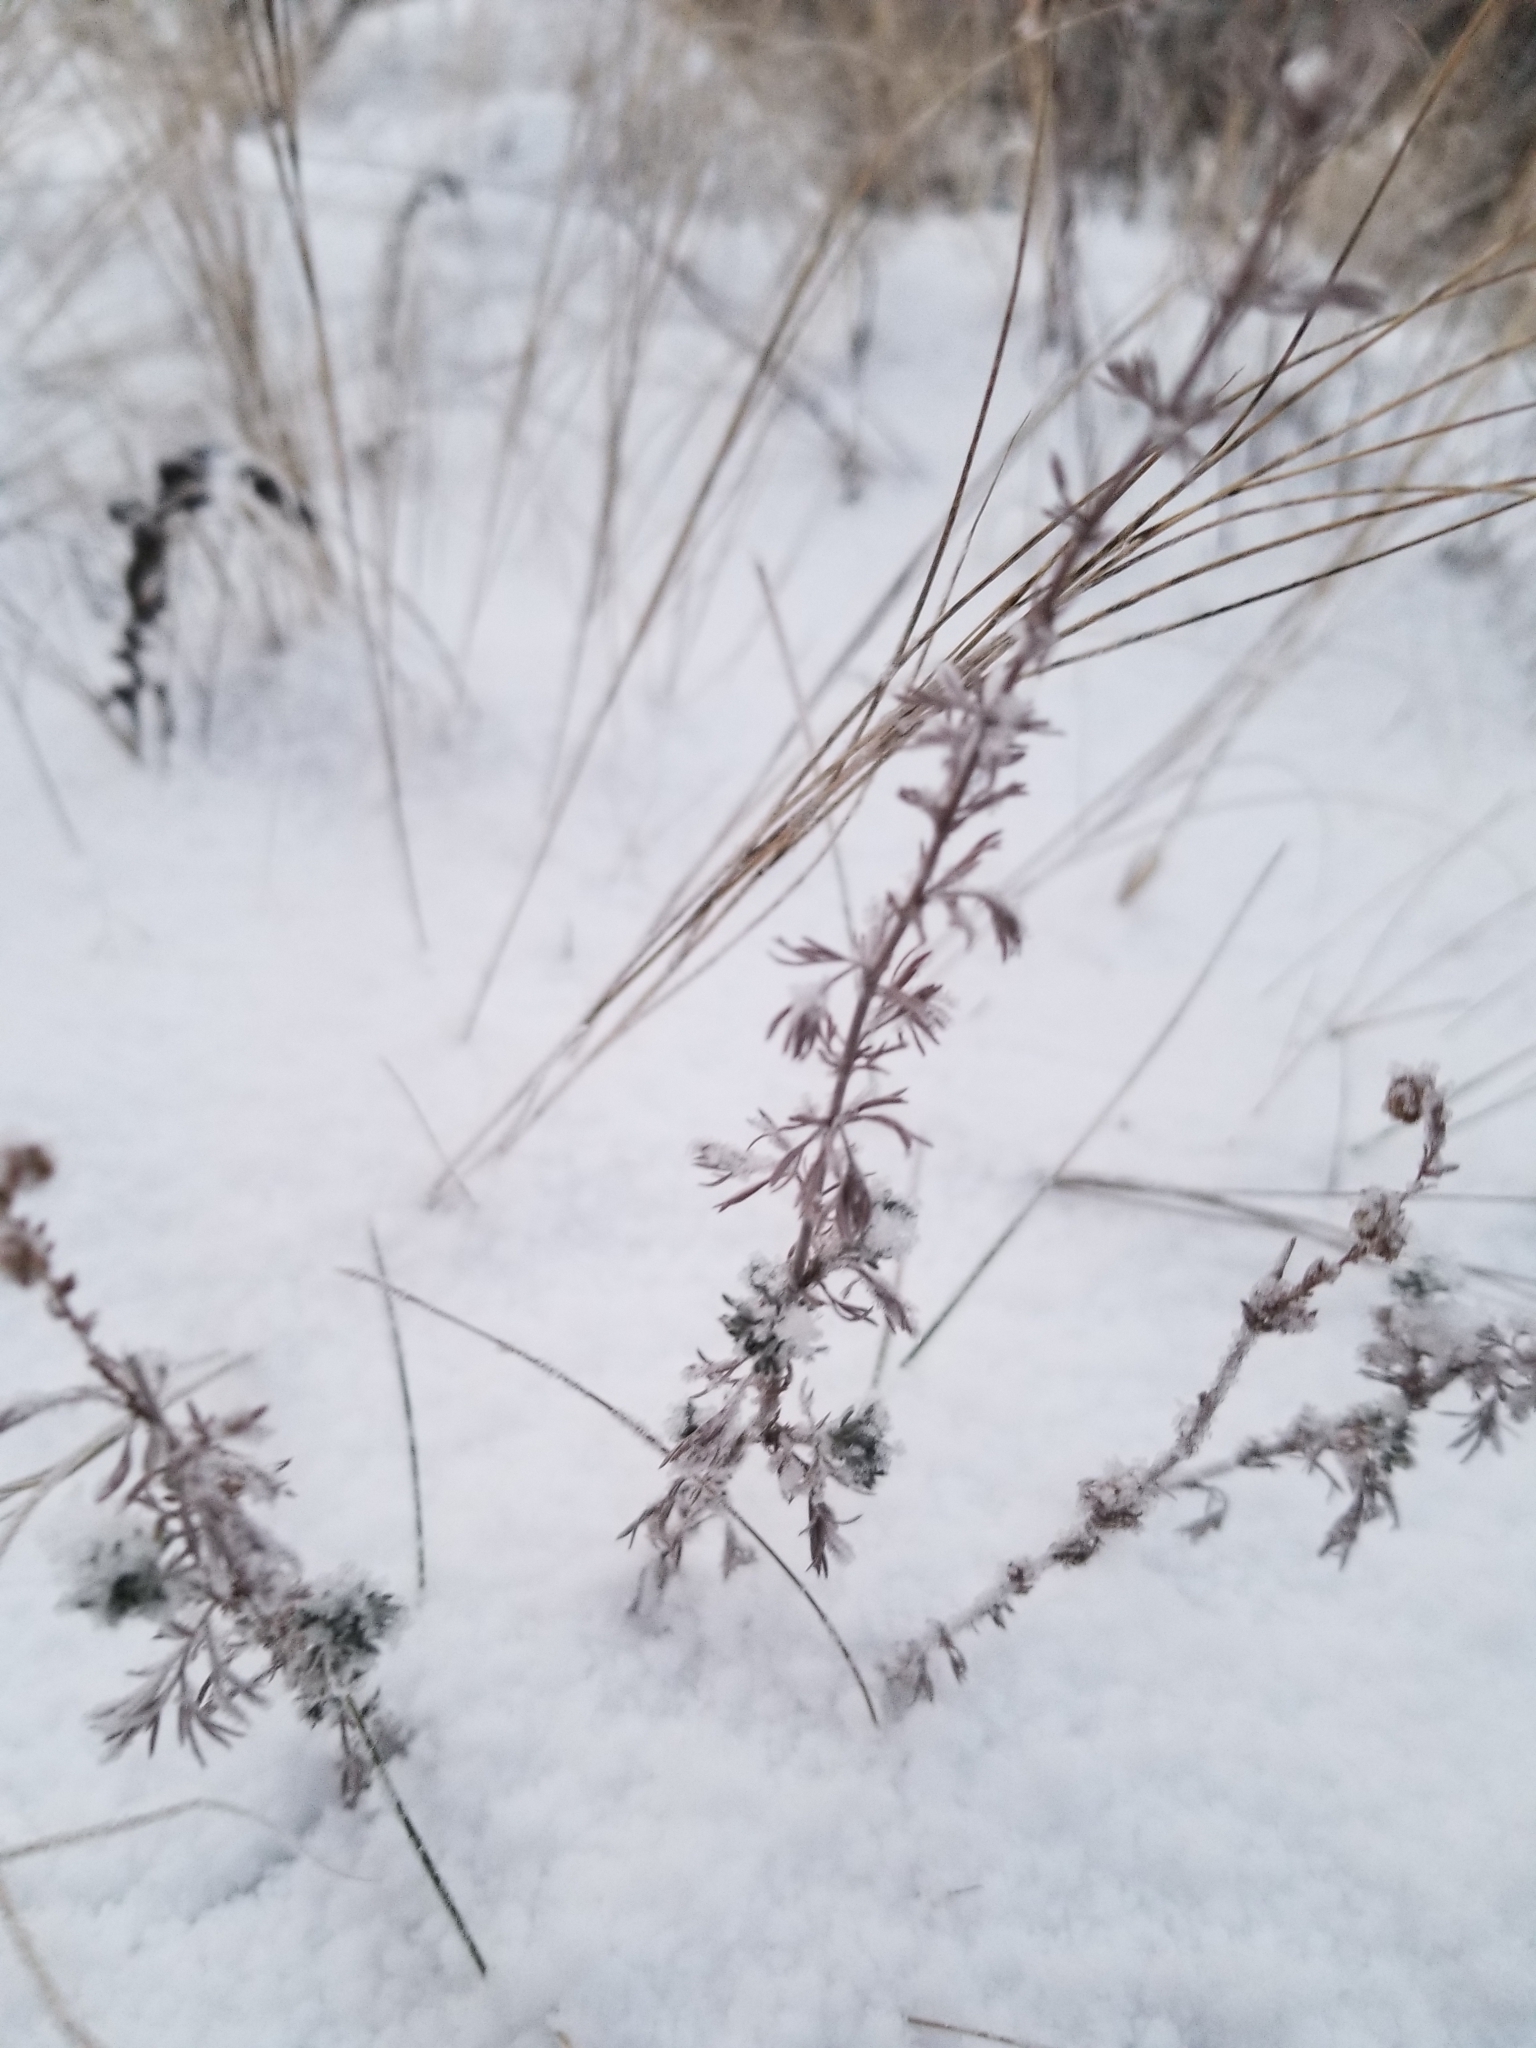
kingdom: Plantae
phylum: Tracheophyta
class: Magnoliopsida
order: Asterales
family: Asteraceae
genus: Artemisia
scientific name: Artemisia frigida
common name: Prairie sagewort
